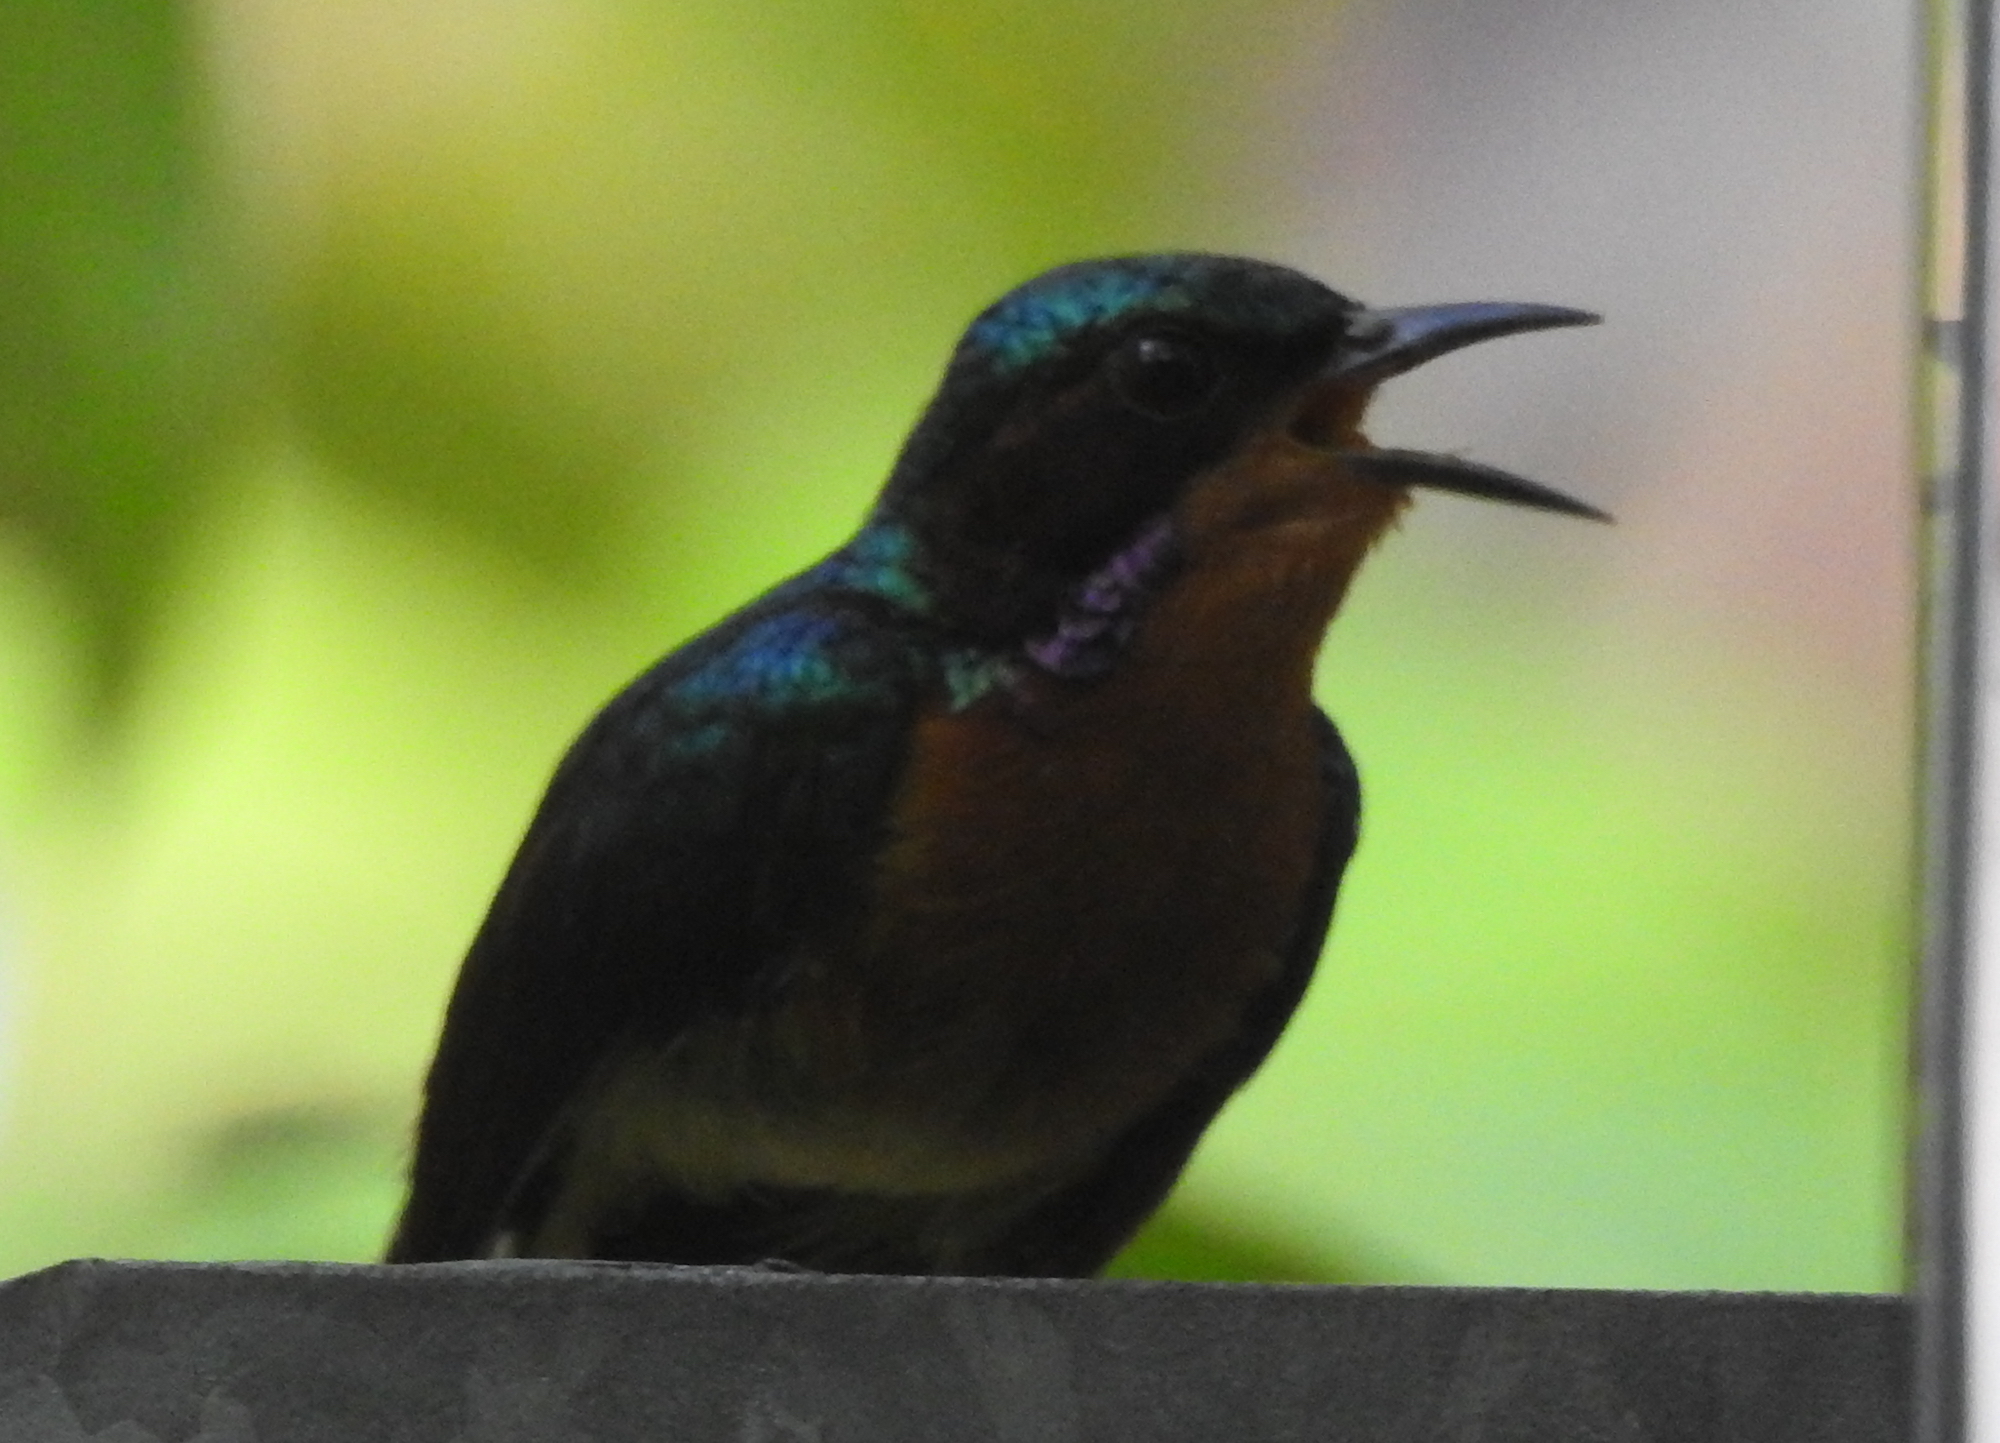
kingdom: Animalia
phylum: Chordata
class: Aves
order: Passeriformes
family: Nectariniidae
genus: Chalcoparia
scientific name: Chalcoparia singalensis
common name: Ruby-cheeked sunbird
